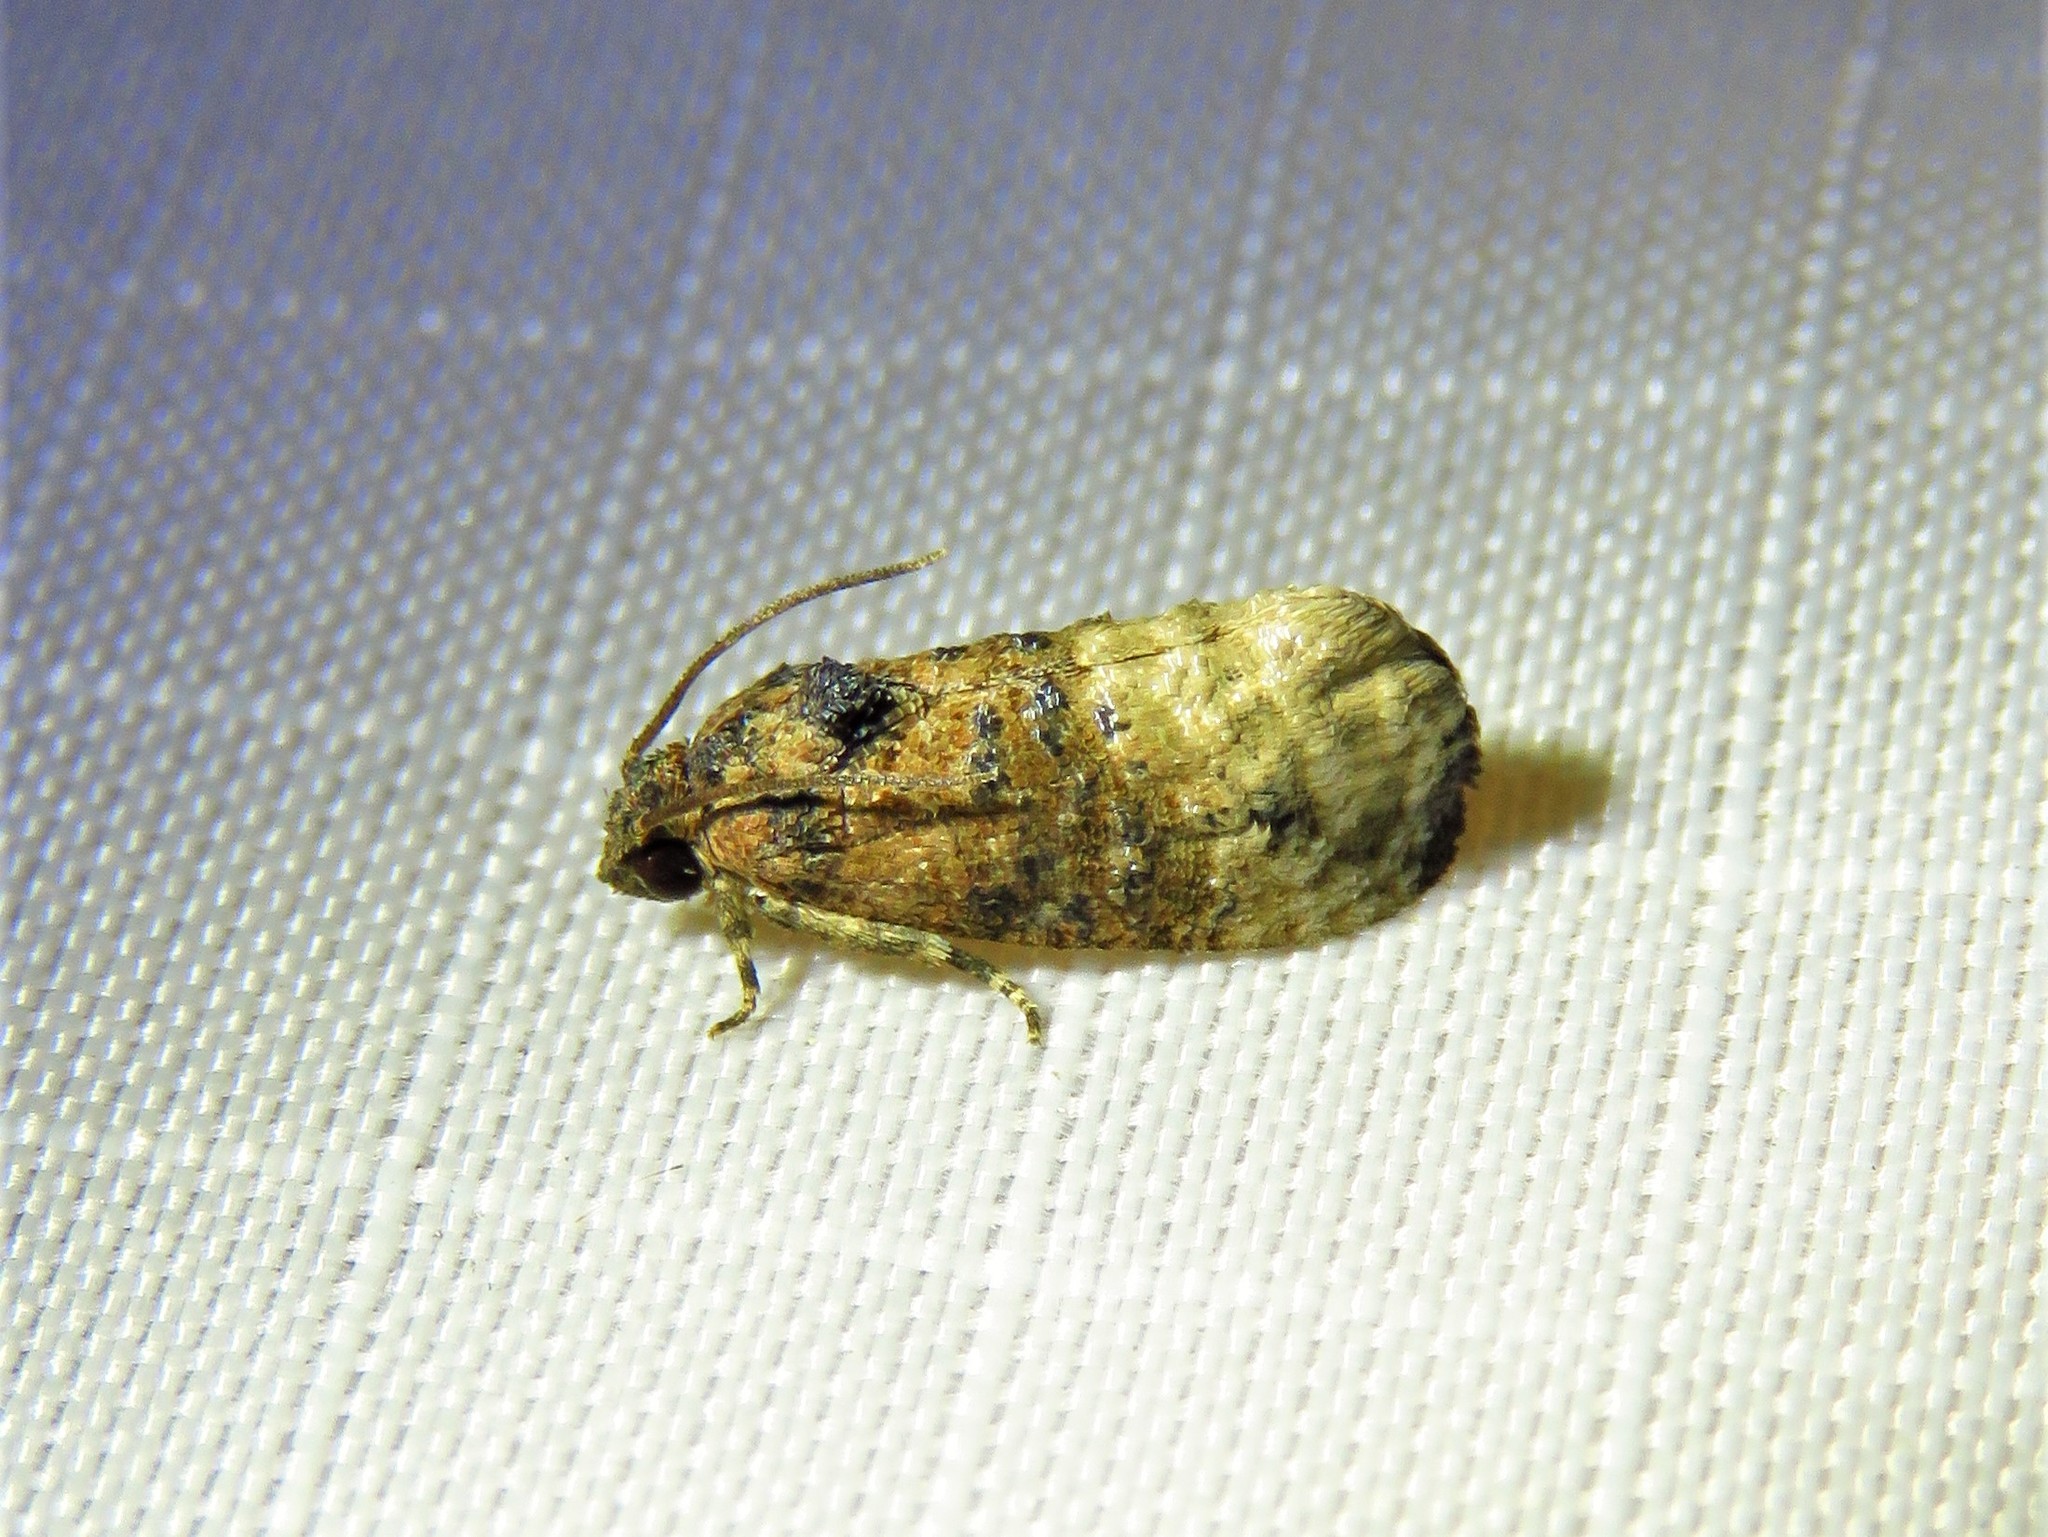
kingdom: Animalia
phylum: Arthropoda
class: Insecta
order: Lepidoptera
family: Tortricidae
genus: Ecdytolopha
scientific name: Ecdytolopha mana
